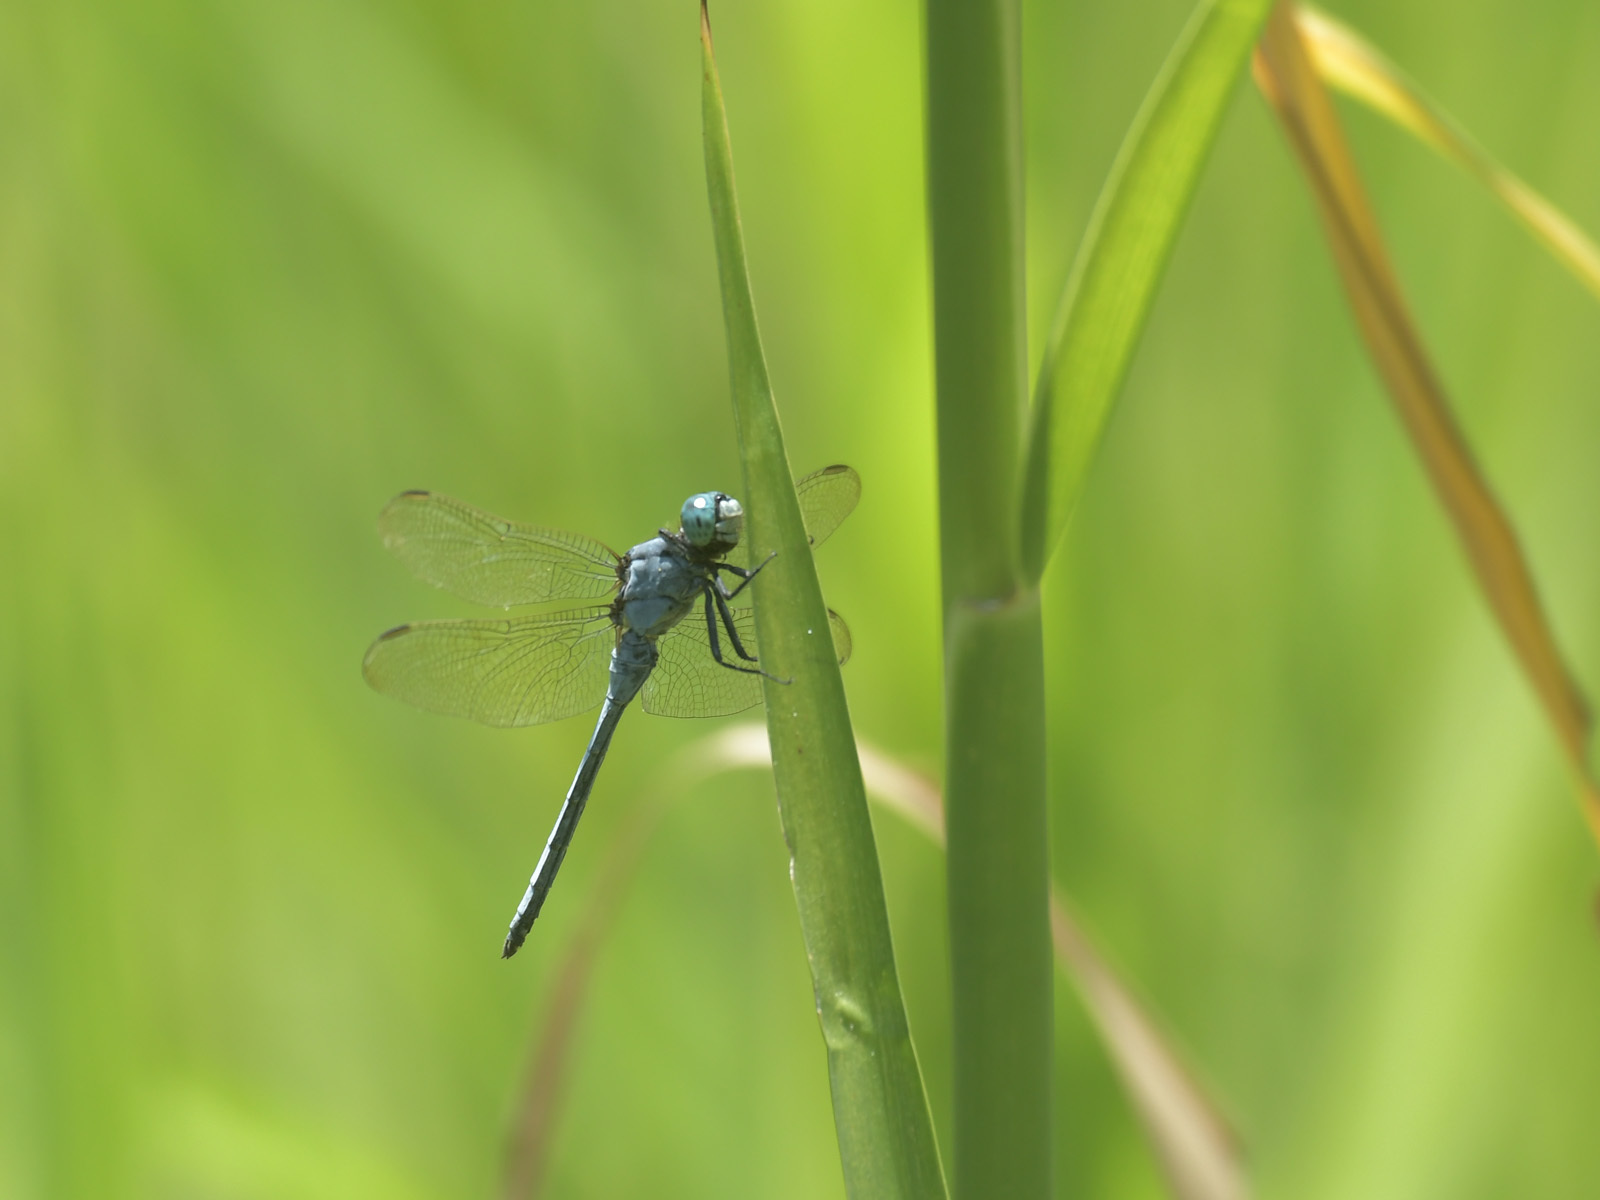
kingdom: Animalia
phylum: Arthropoda
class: Insecta
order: Odonata
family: Libellulidae
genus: Orthetrum
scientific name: Orthetrum luzonicum
